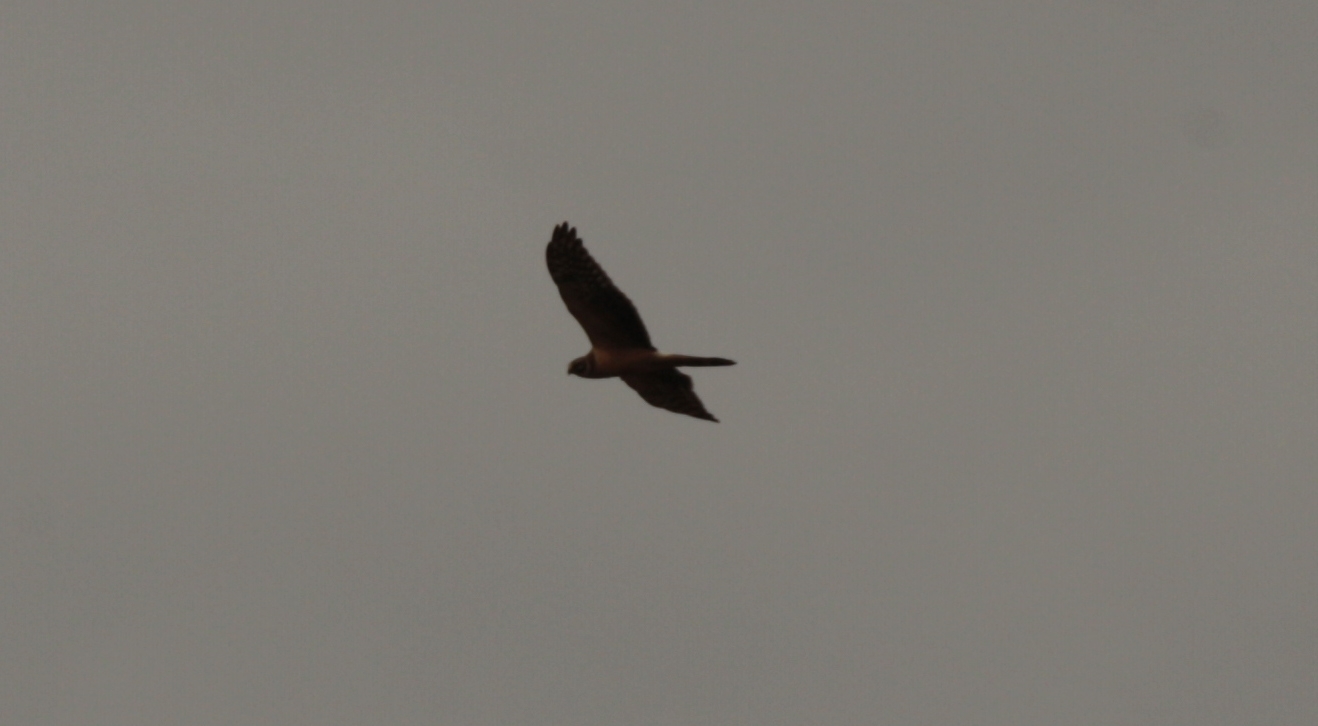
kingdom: Animalia
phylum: Chordata
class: Aves
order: Accipitriformes
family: Accipitridae
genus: Circus
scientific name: Circus macrourus
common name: Pallid harrier
